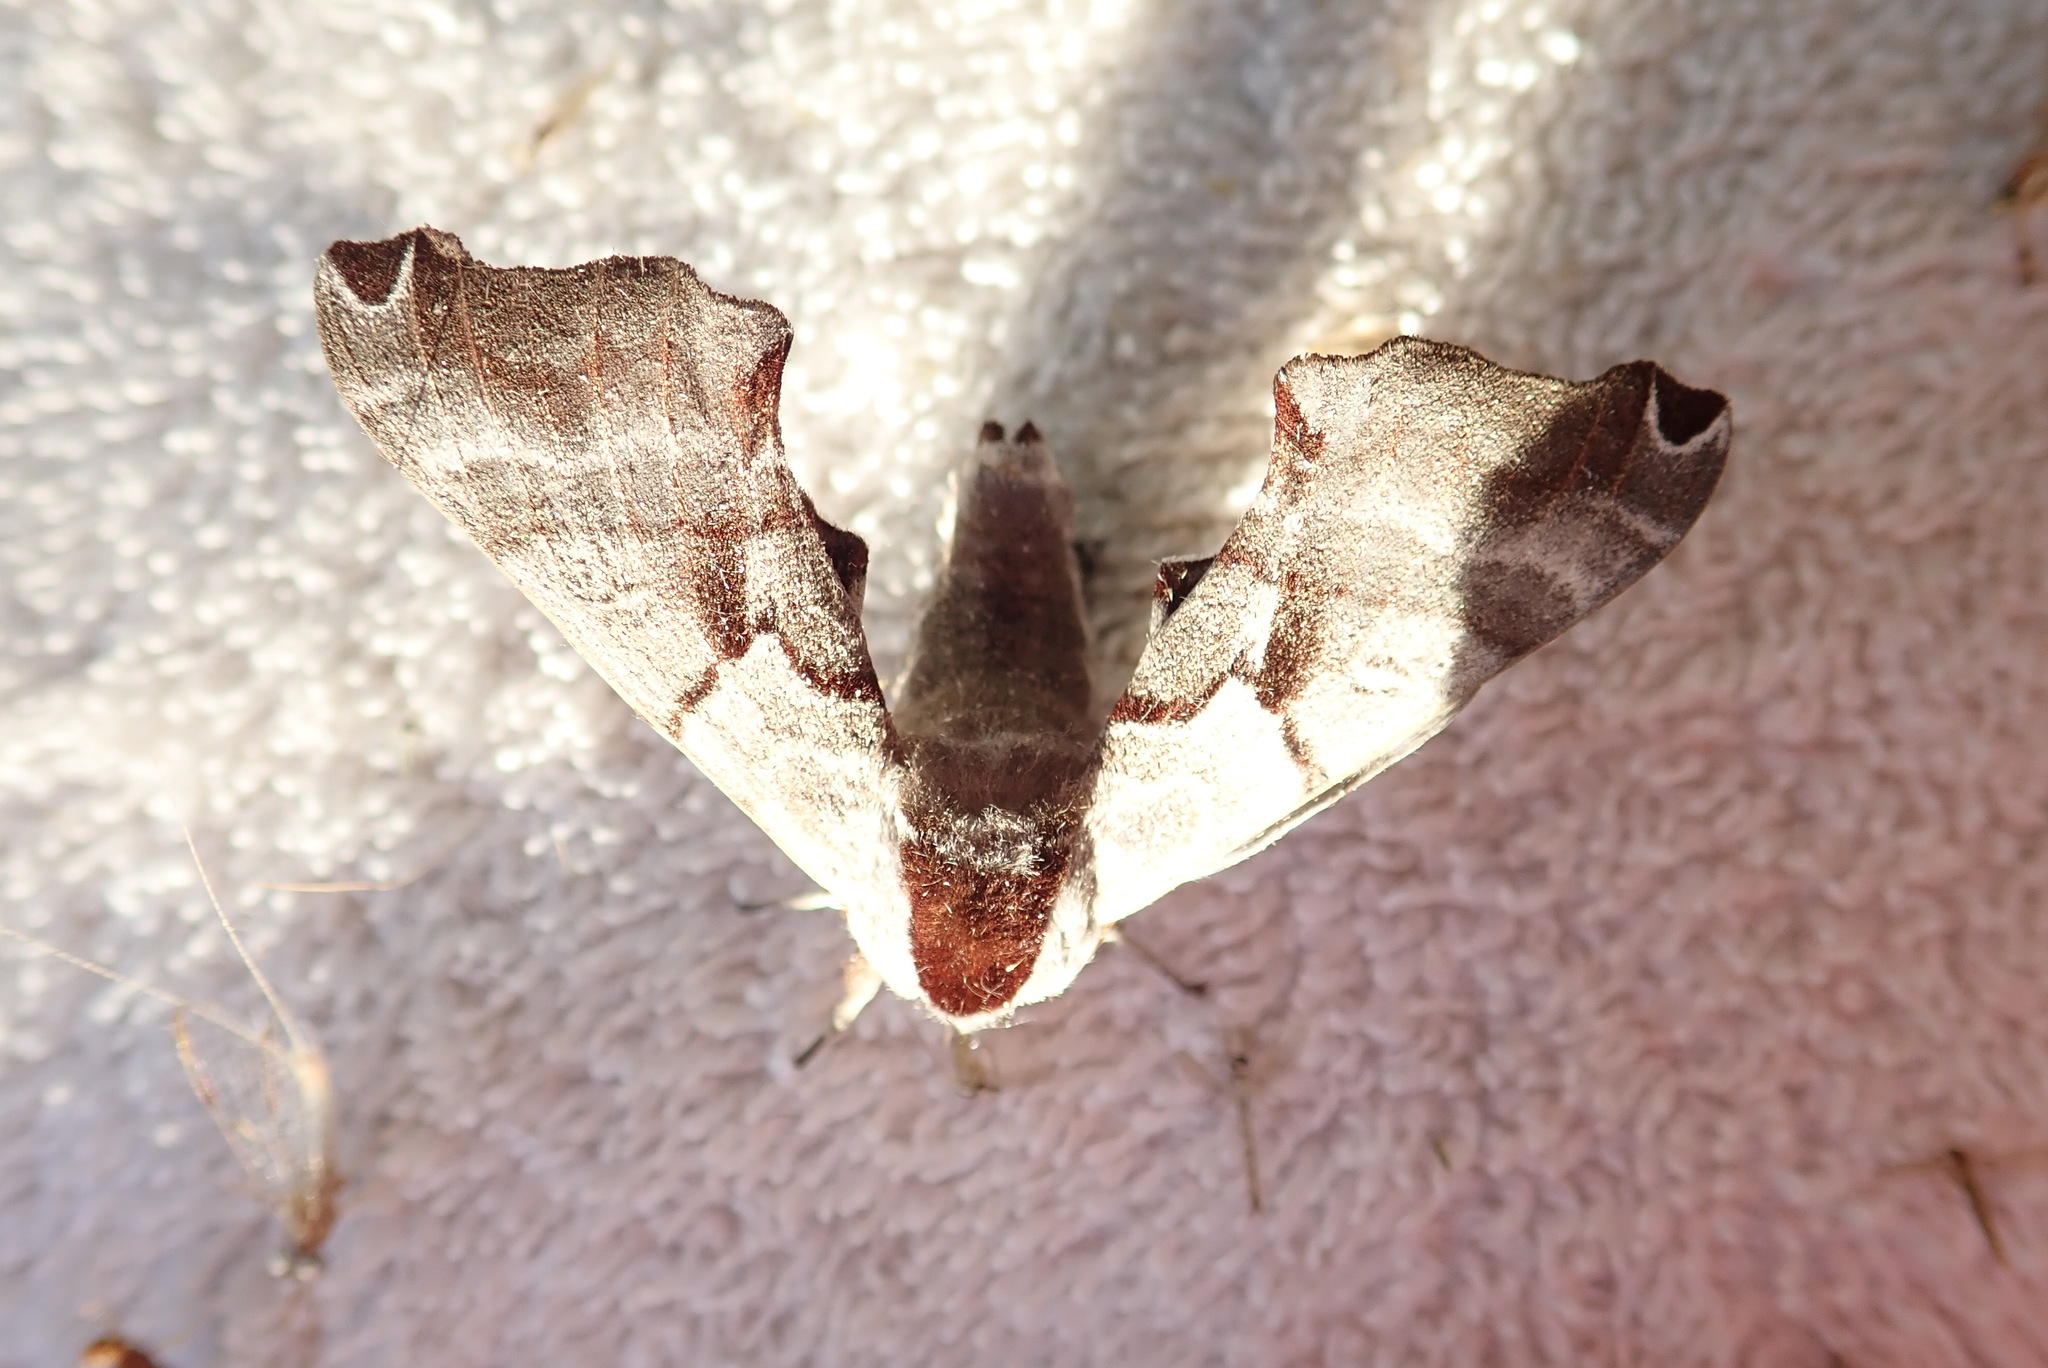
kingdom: Animalia
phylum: Arthropoda
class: Insecta
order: Lepidoptera
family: Sphingidae
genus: Smerinthus
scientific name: Smerinthus jamaicensis
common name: Twin spotted sphinx
